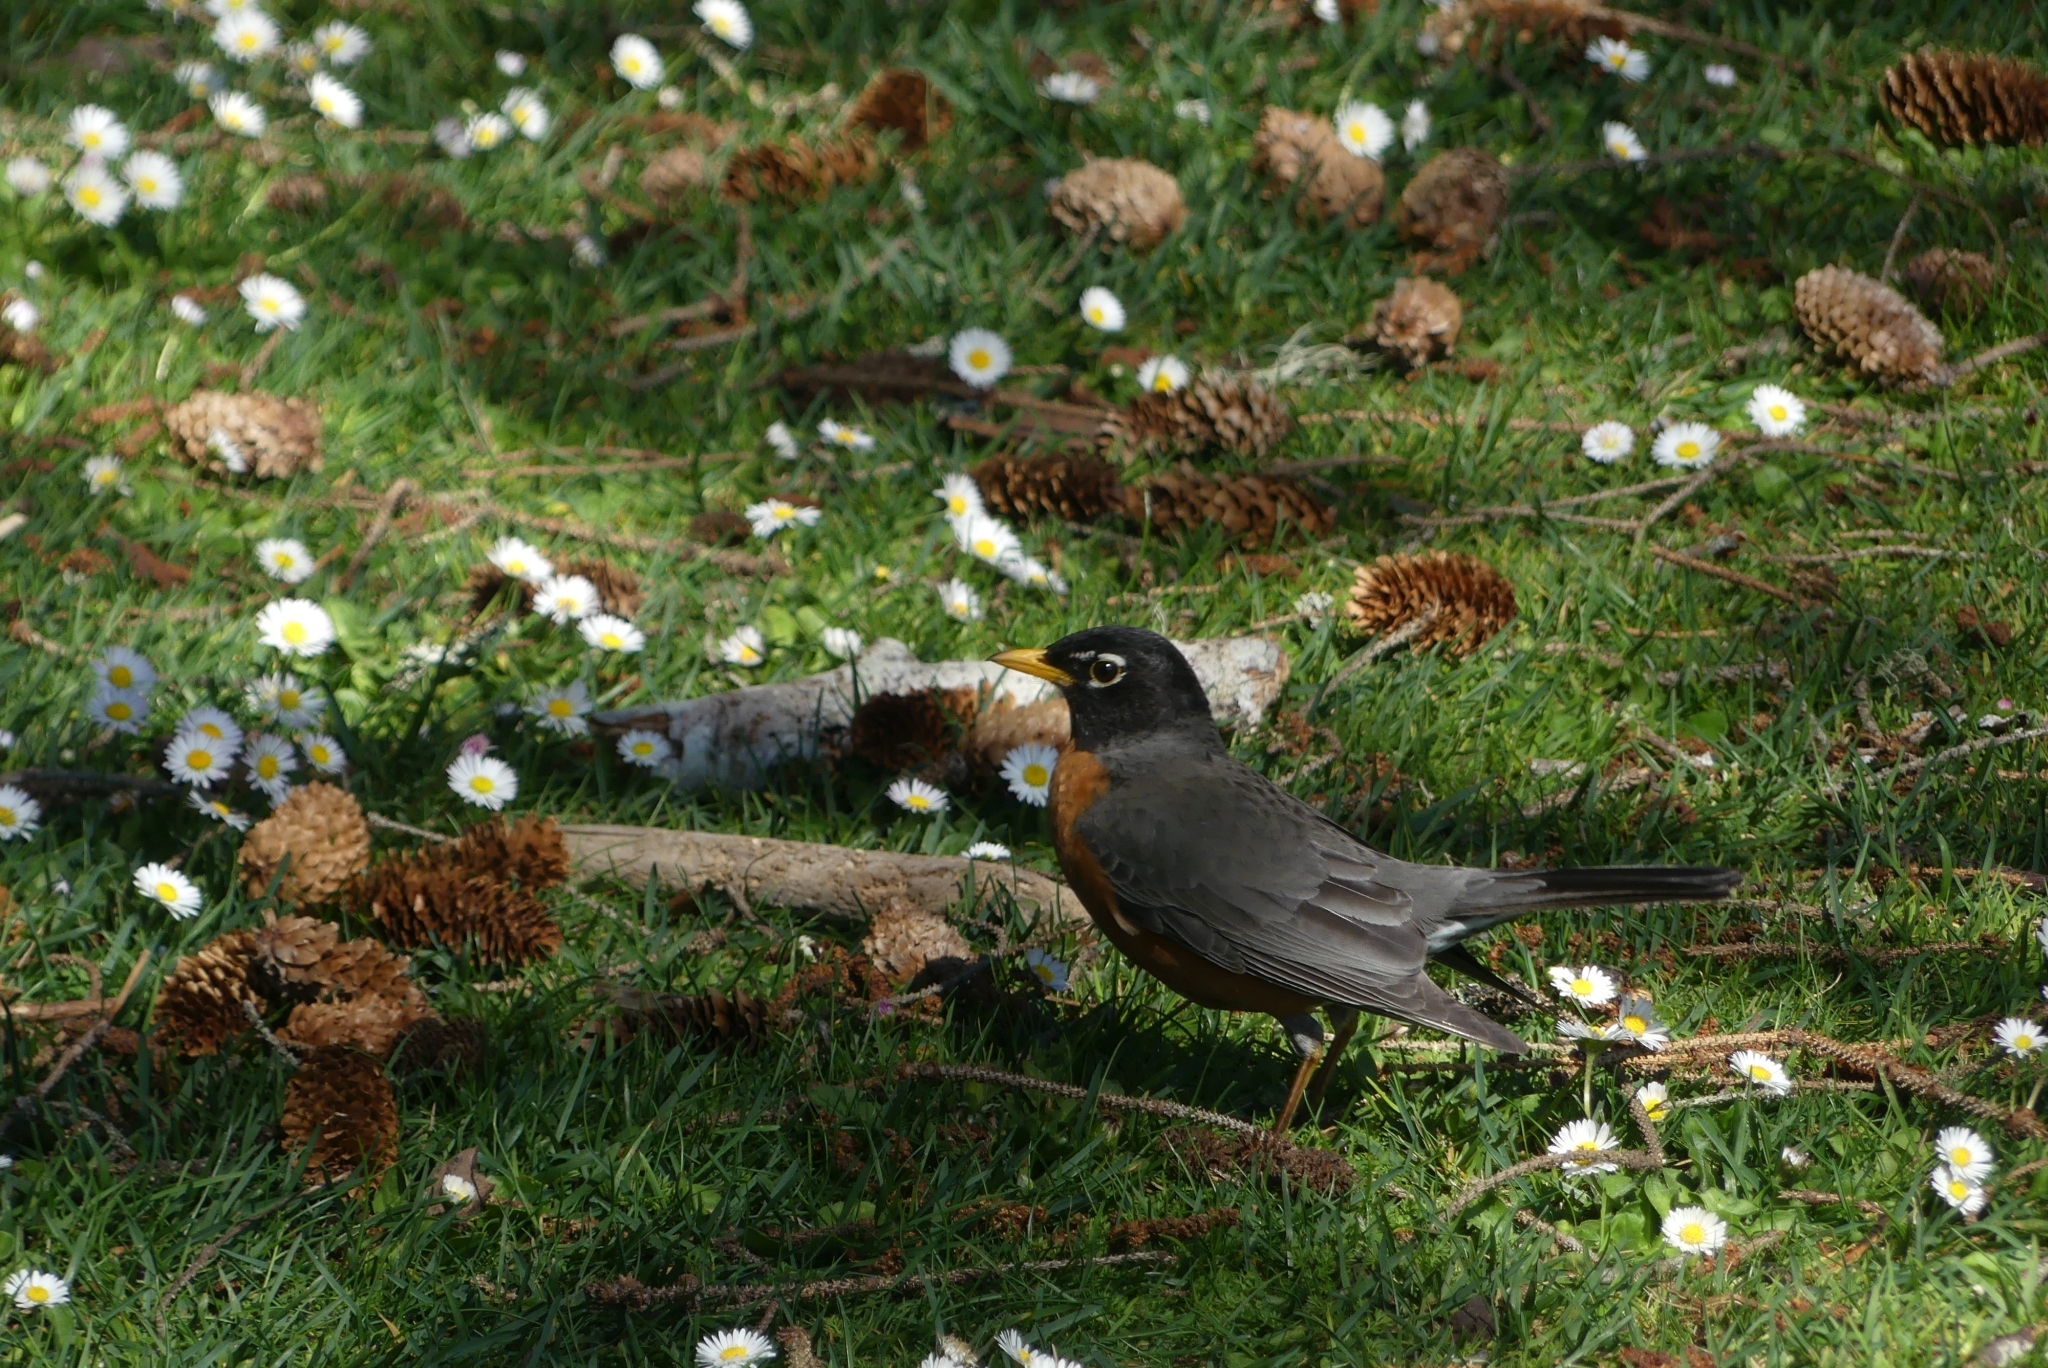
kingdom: Animalia
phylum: Chordata
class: Aves
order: Passeriformes
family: Turdidae
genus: Turdus
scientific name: Turdus migratorius
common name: American robin
